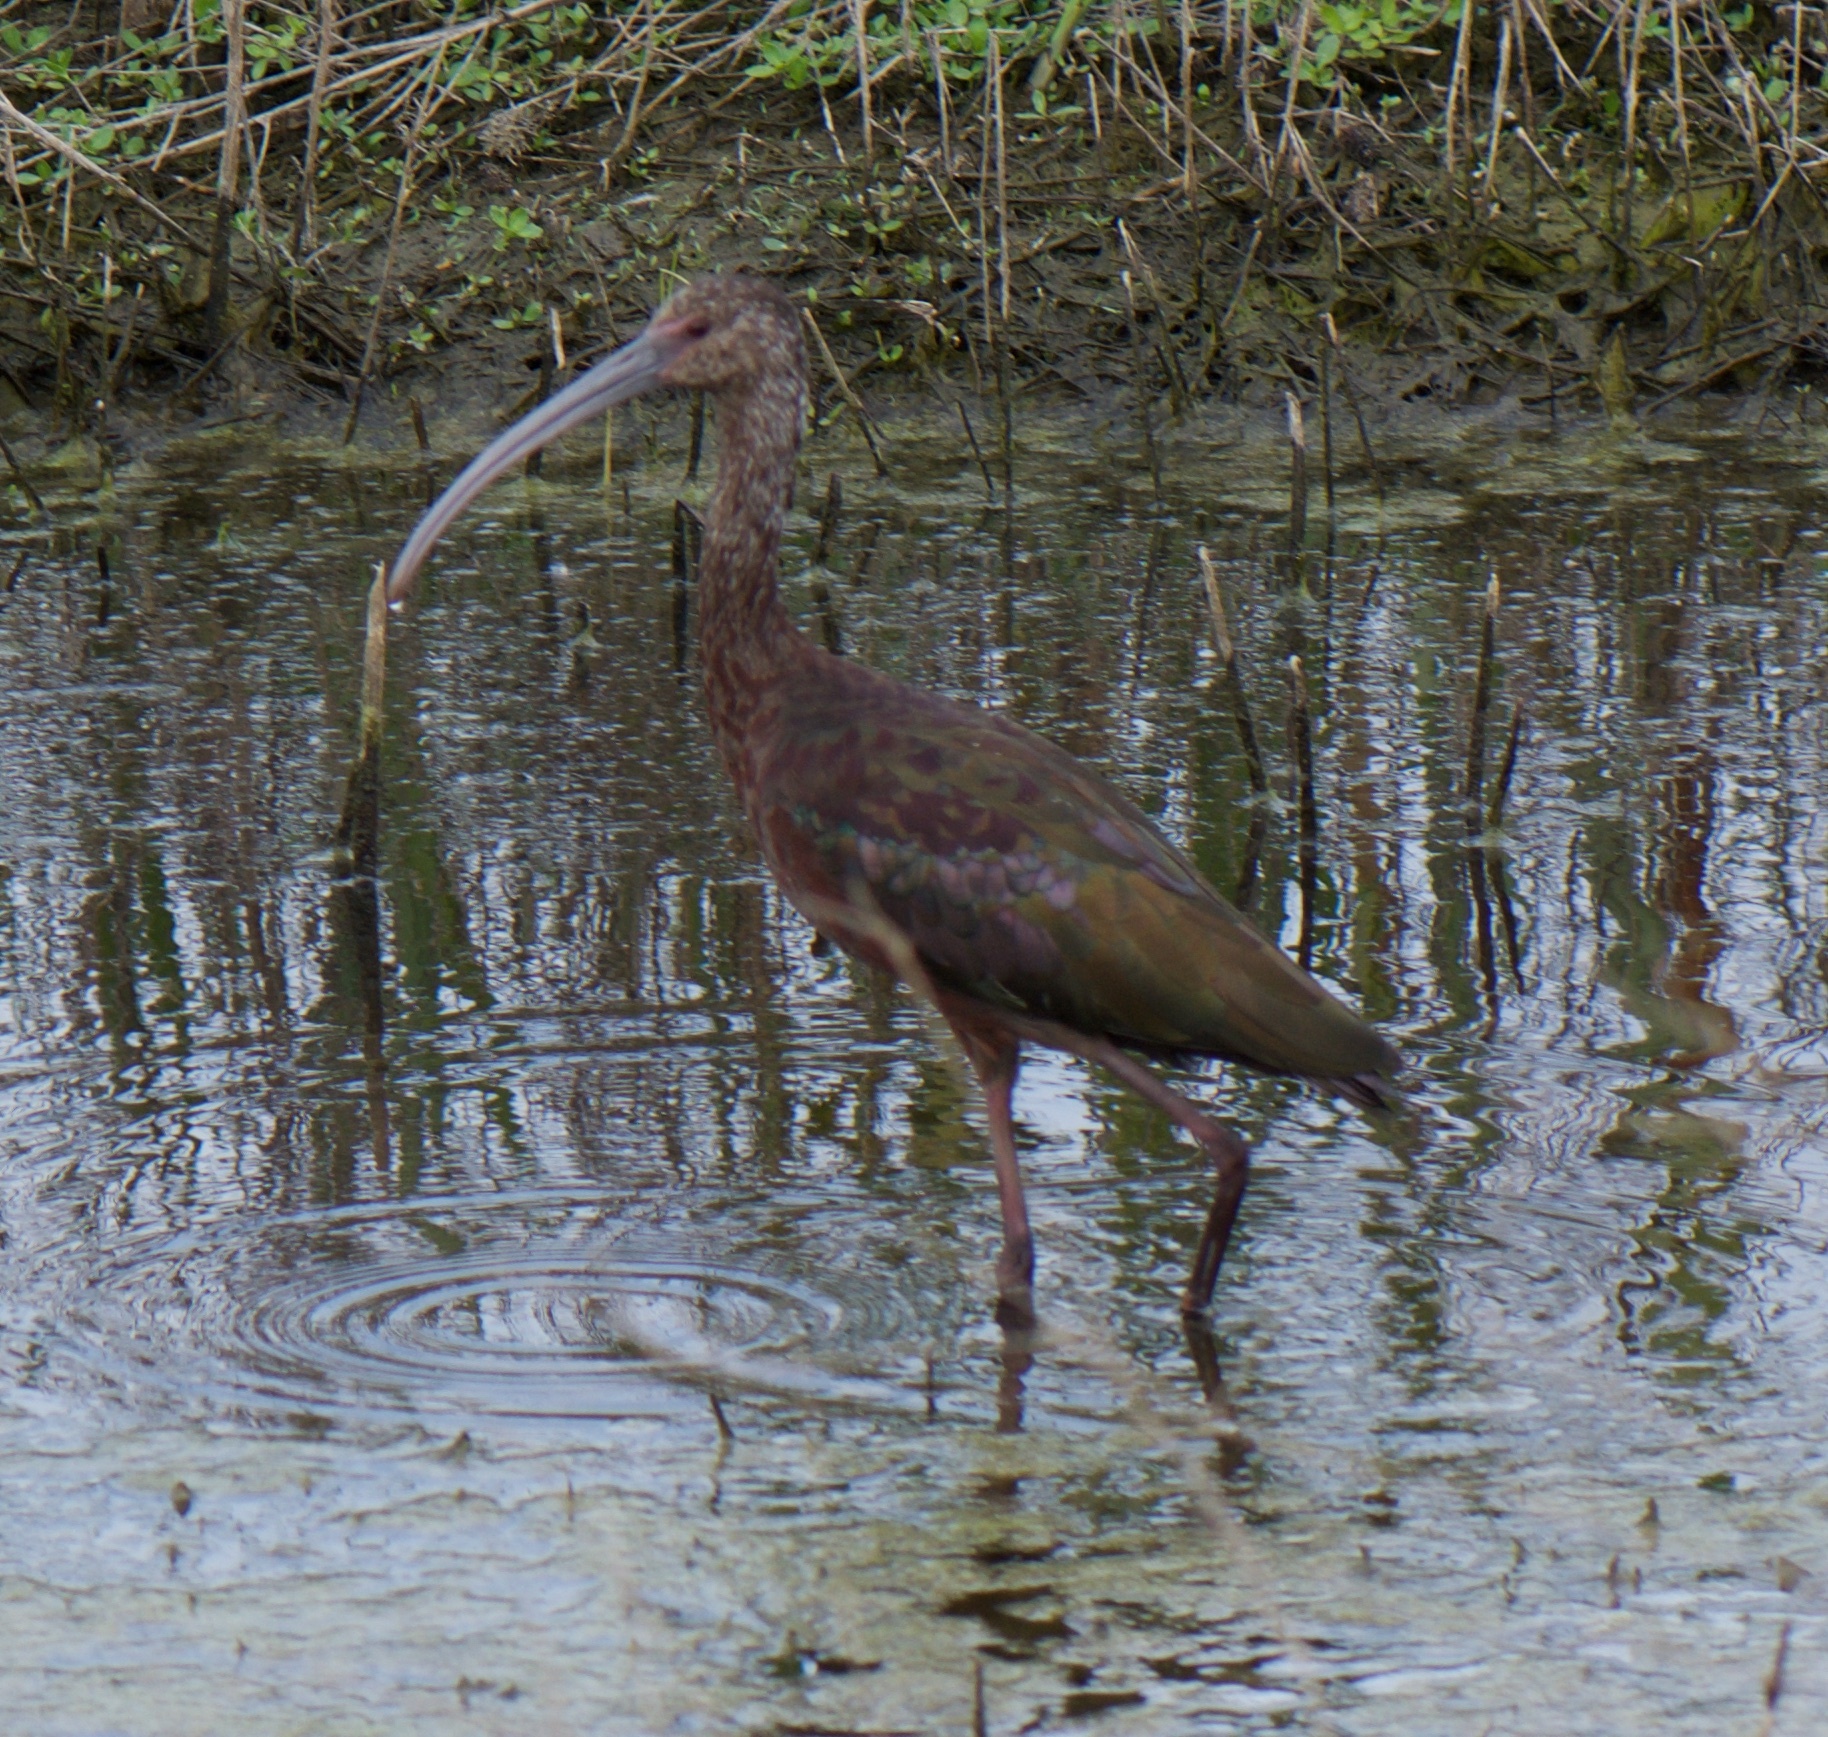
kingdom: Animalia
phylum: Chordata
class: Aves
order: Pelecaniformes
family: Threskiornithidae
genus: Plegadis
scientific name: Plegadis chihi
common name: White-faced ibis
